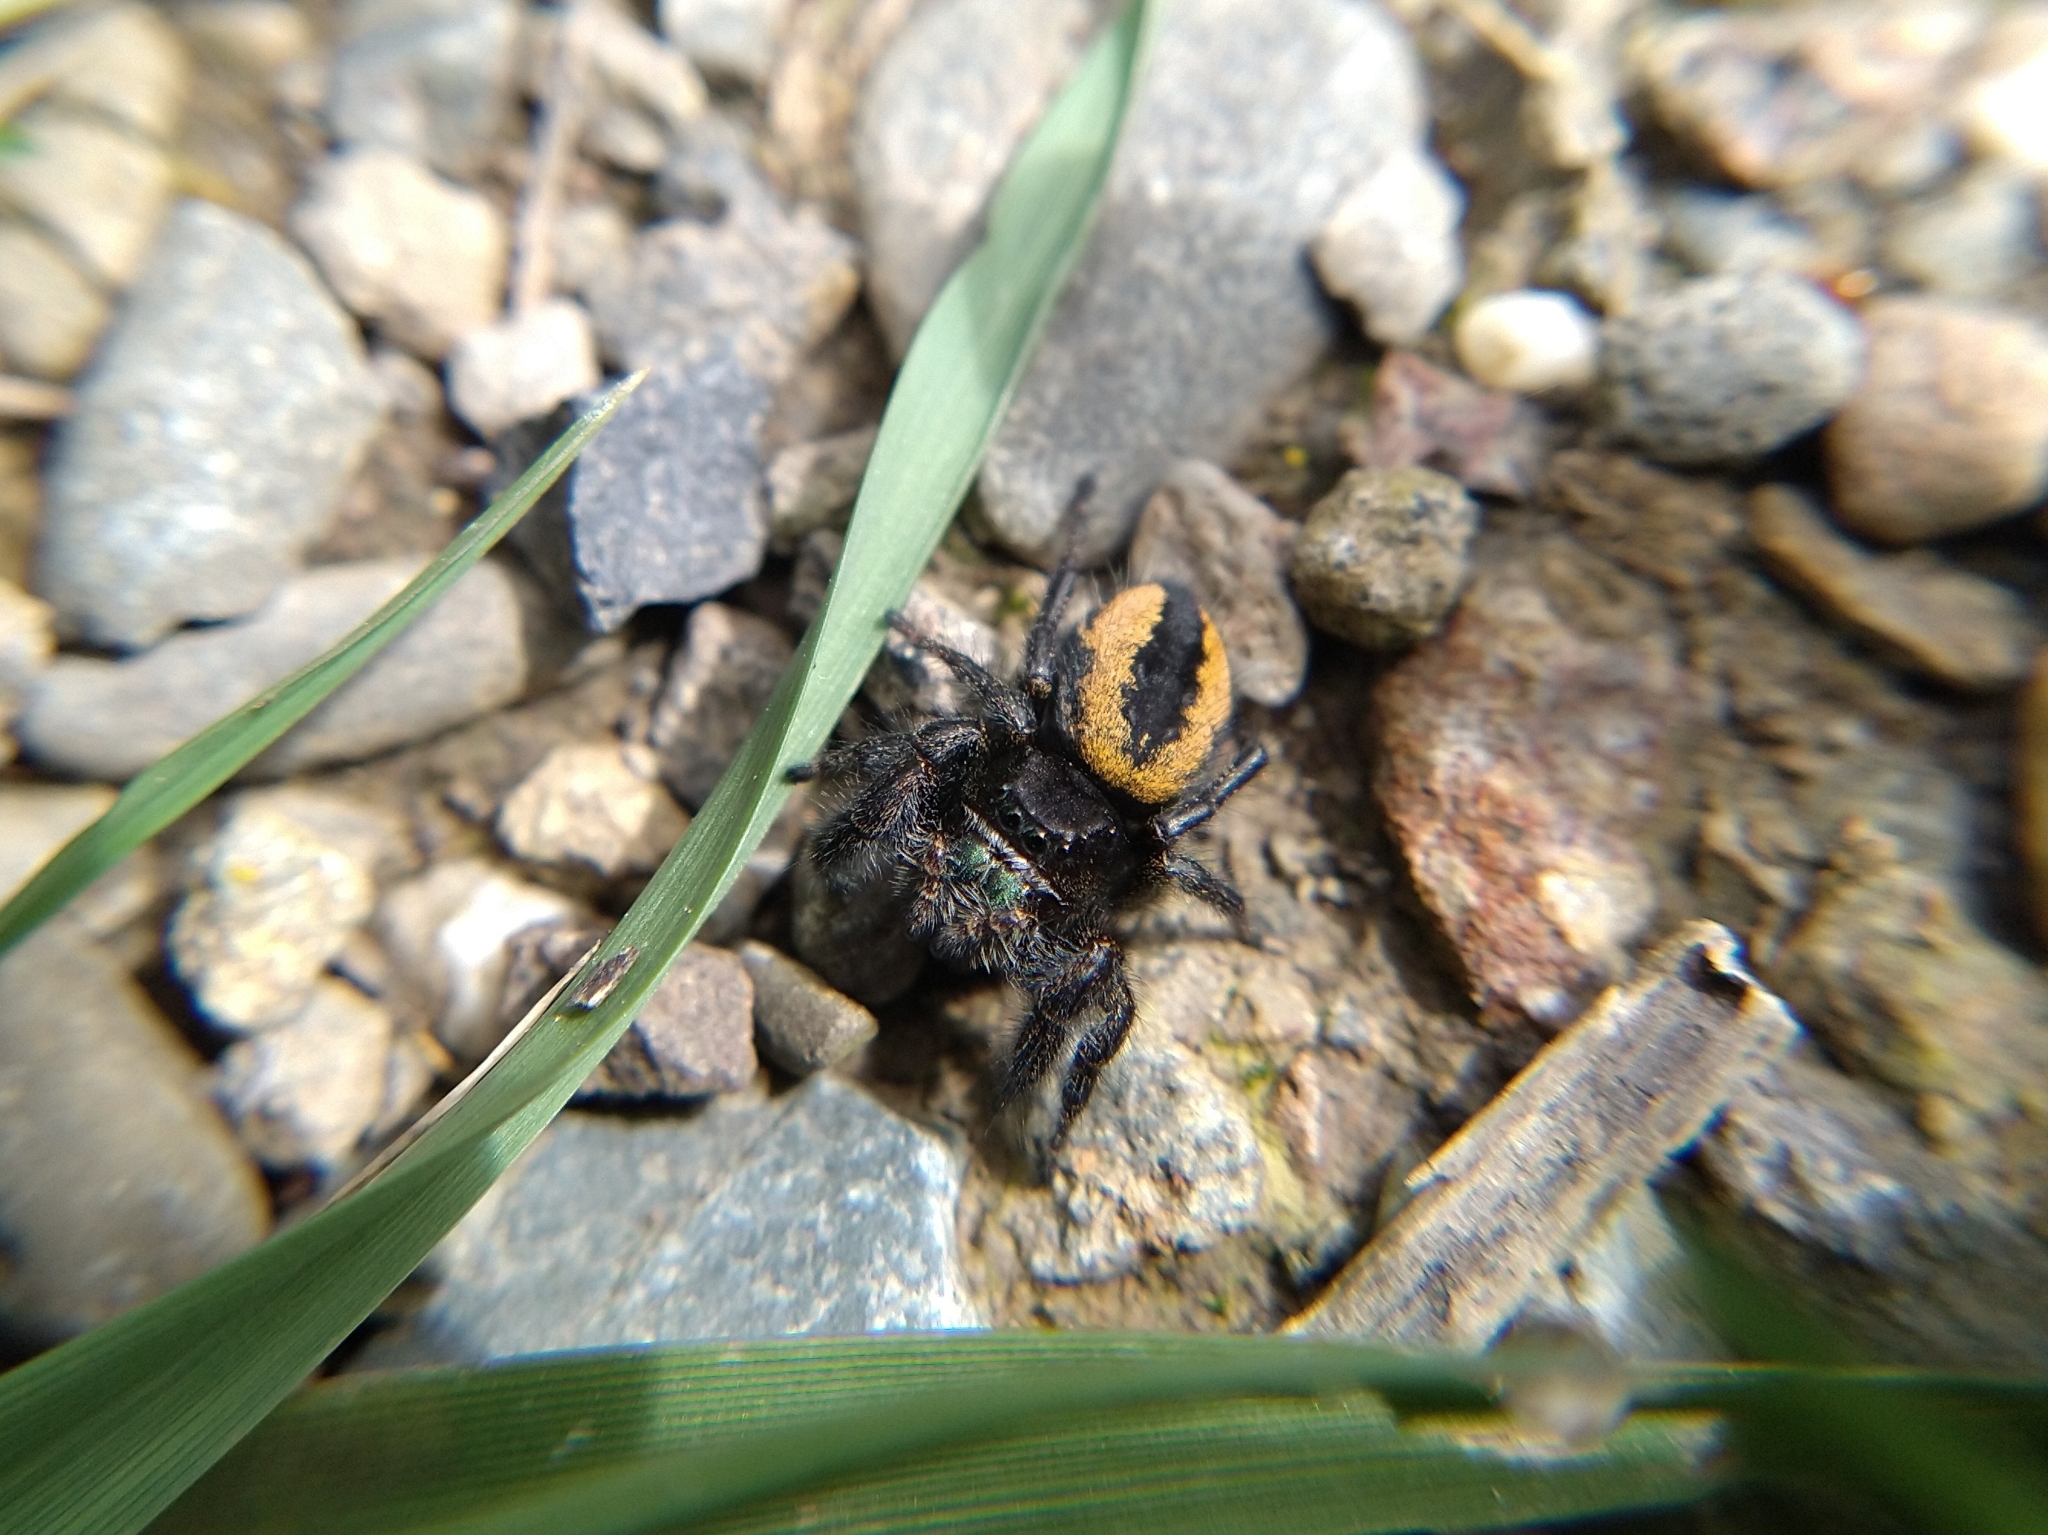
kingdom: Animalia
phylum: Arthropoda
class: Arachnida
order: Araneae
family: Salticidae
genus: Phidippus
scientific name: Phidippus johnsoni
